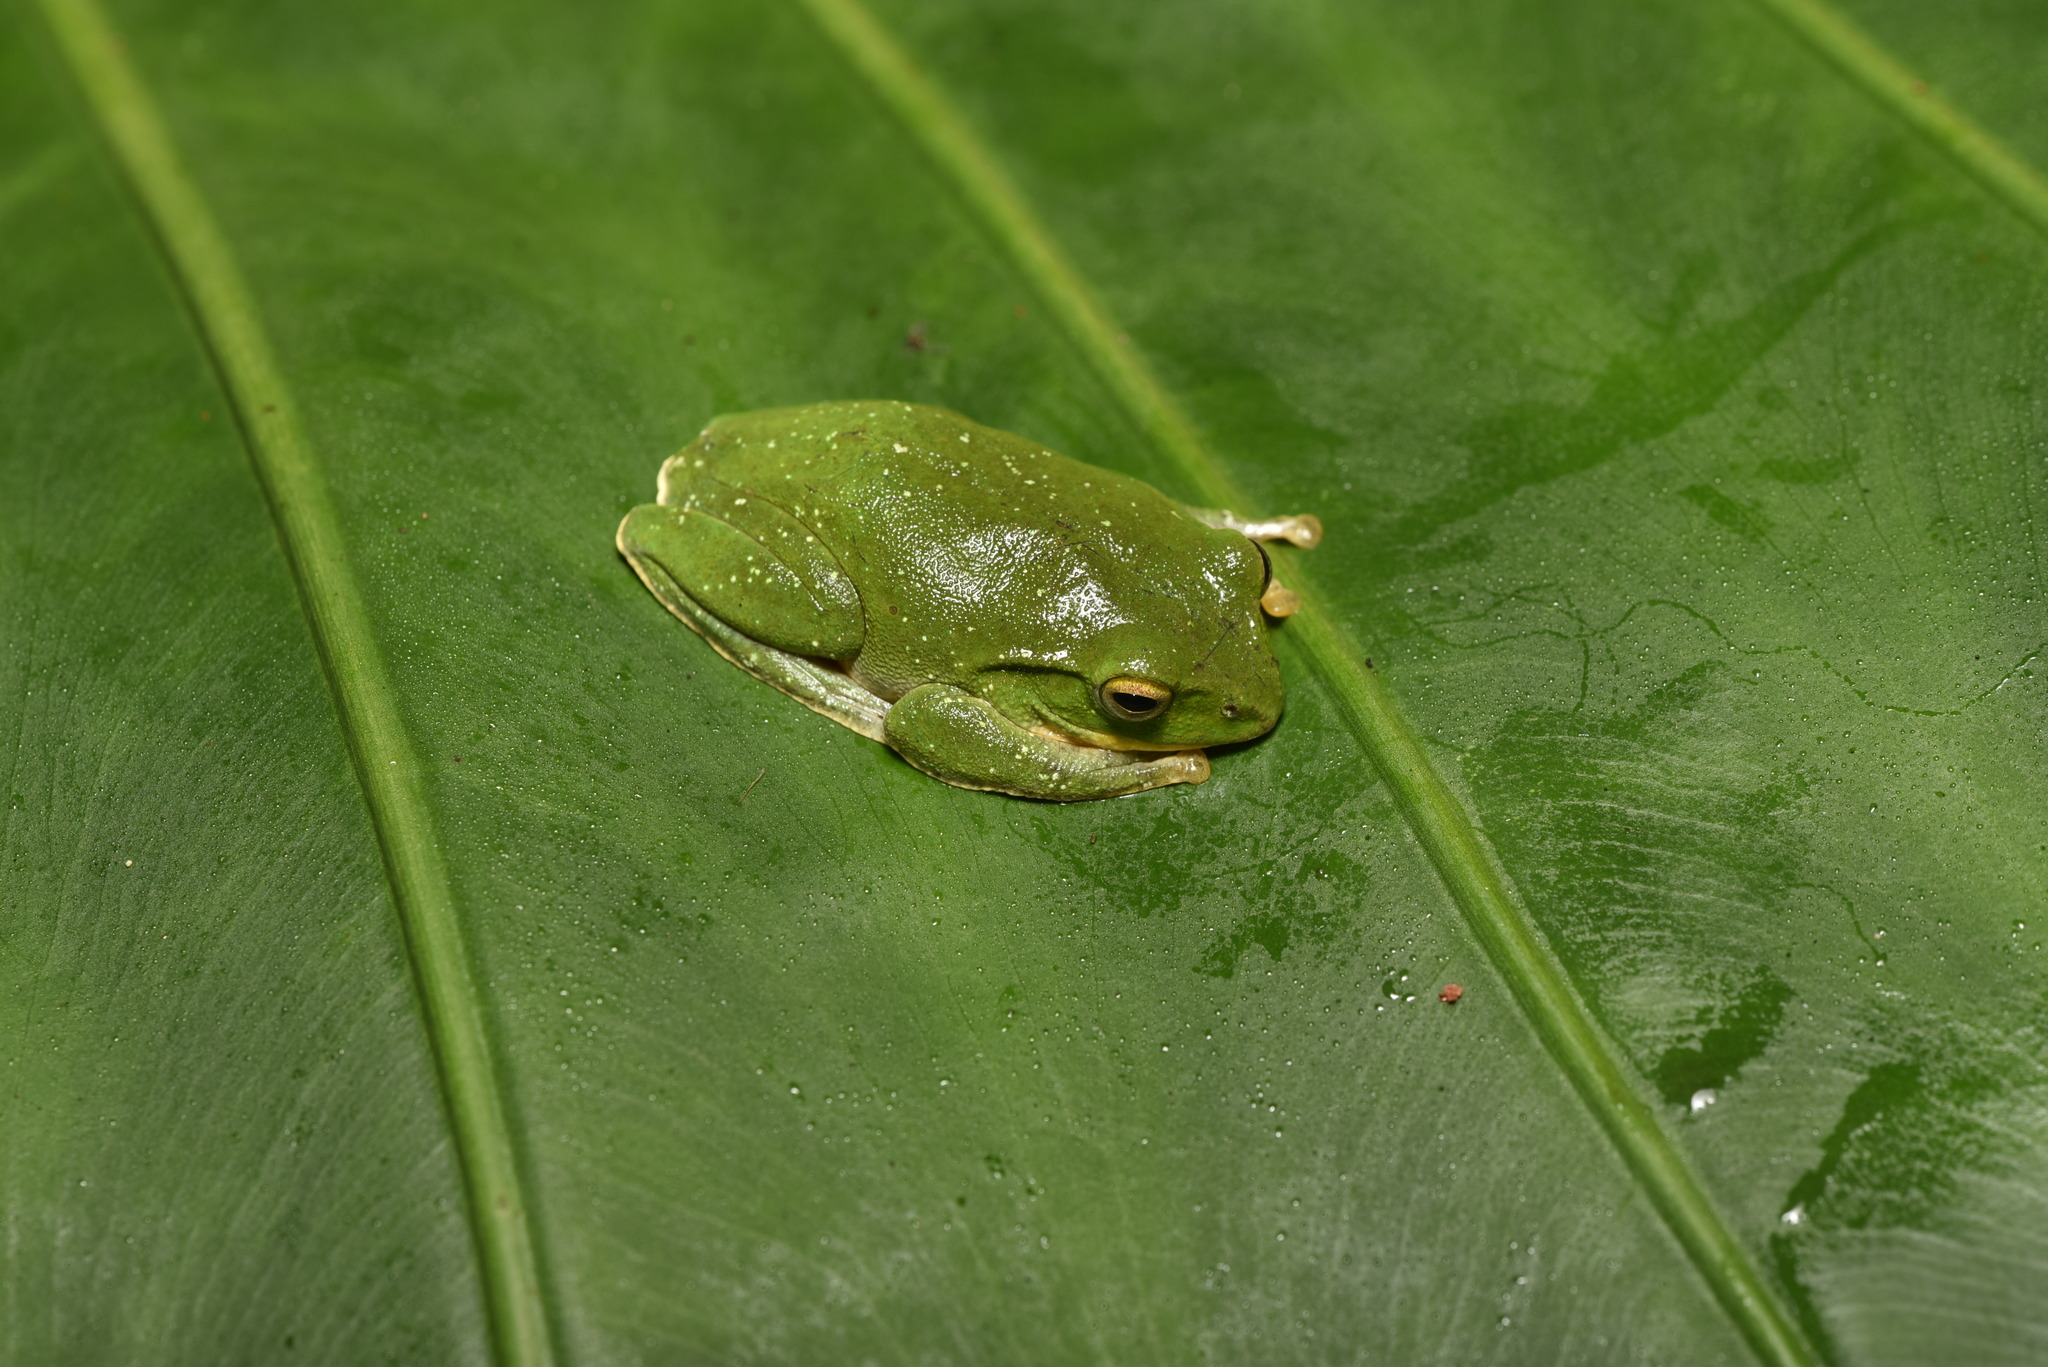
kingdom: Animalia
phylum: Chordata
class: Amphibia
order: Anura
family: Rhacophoridae
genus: Zhangixalus
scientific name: Zhangixalus taipeianus
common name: Taipei flying frog
